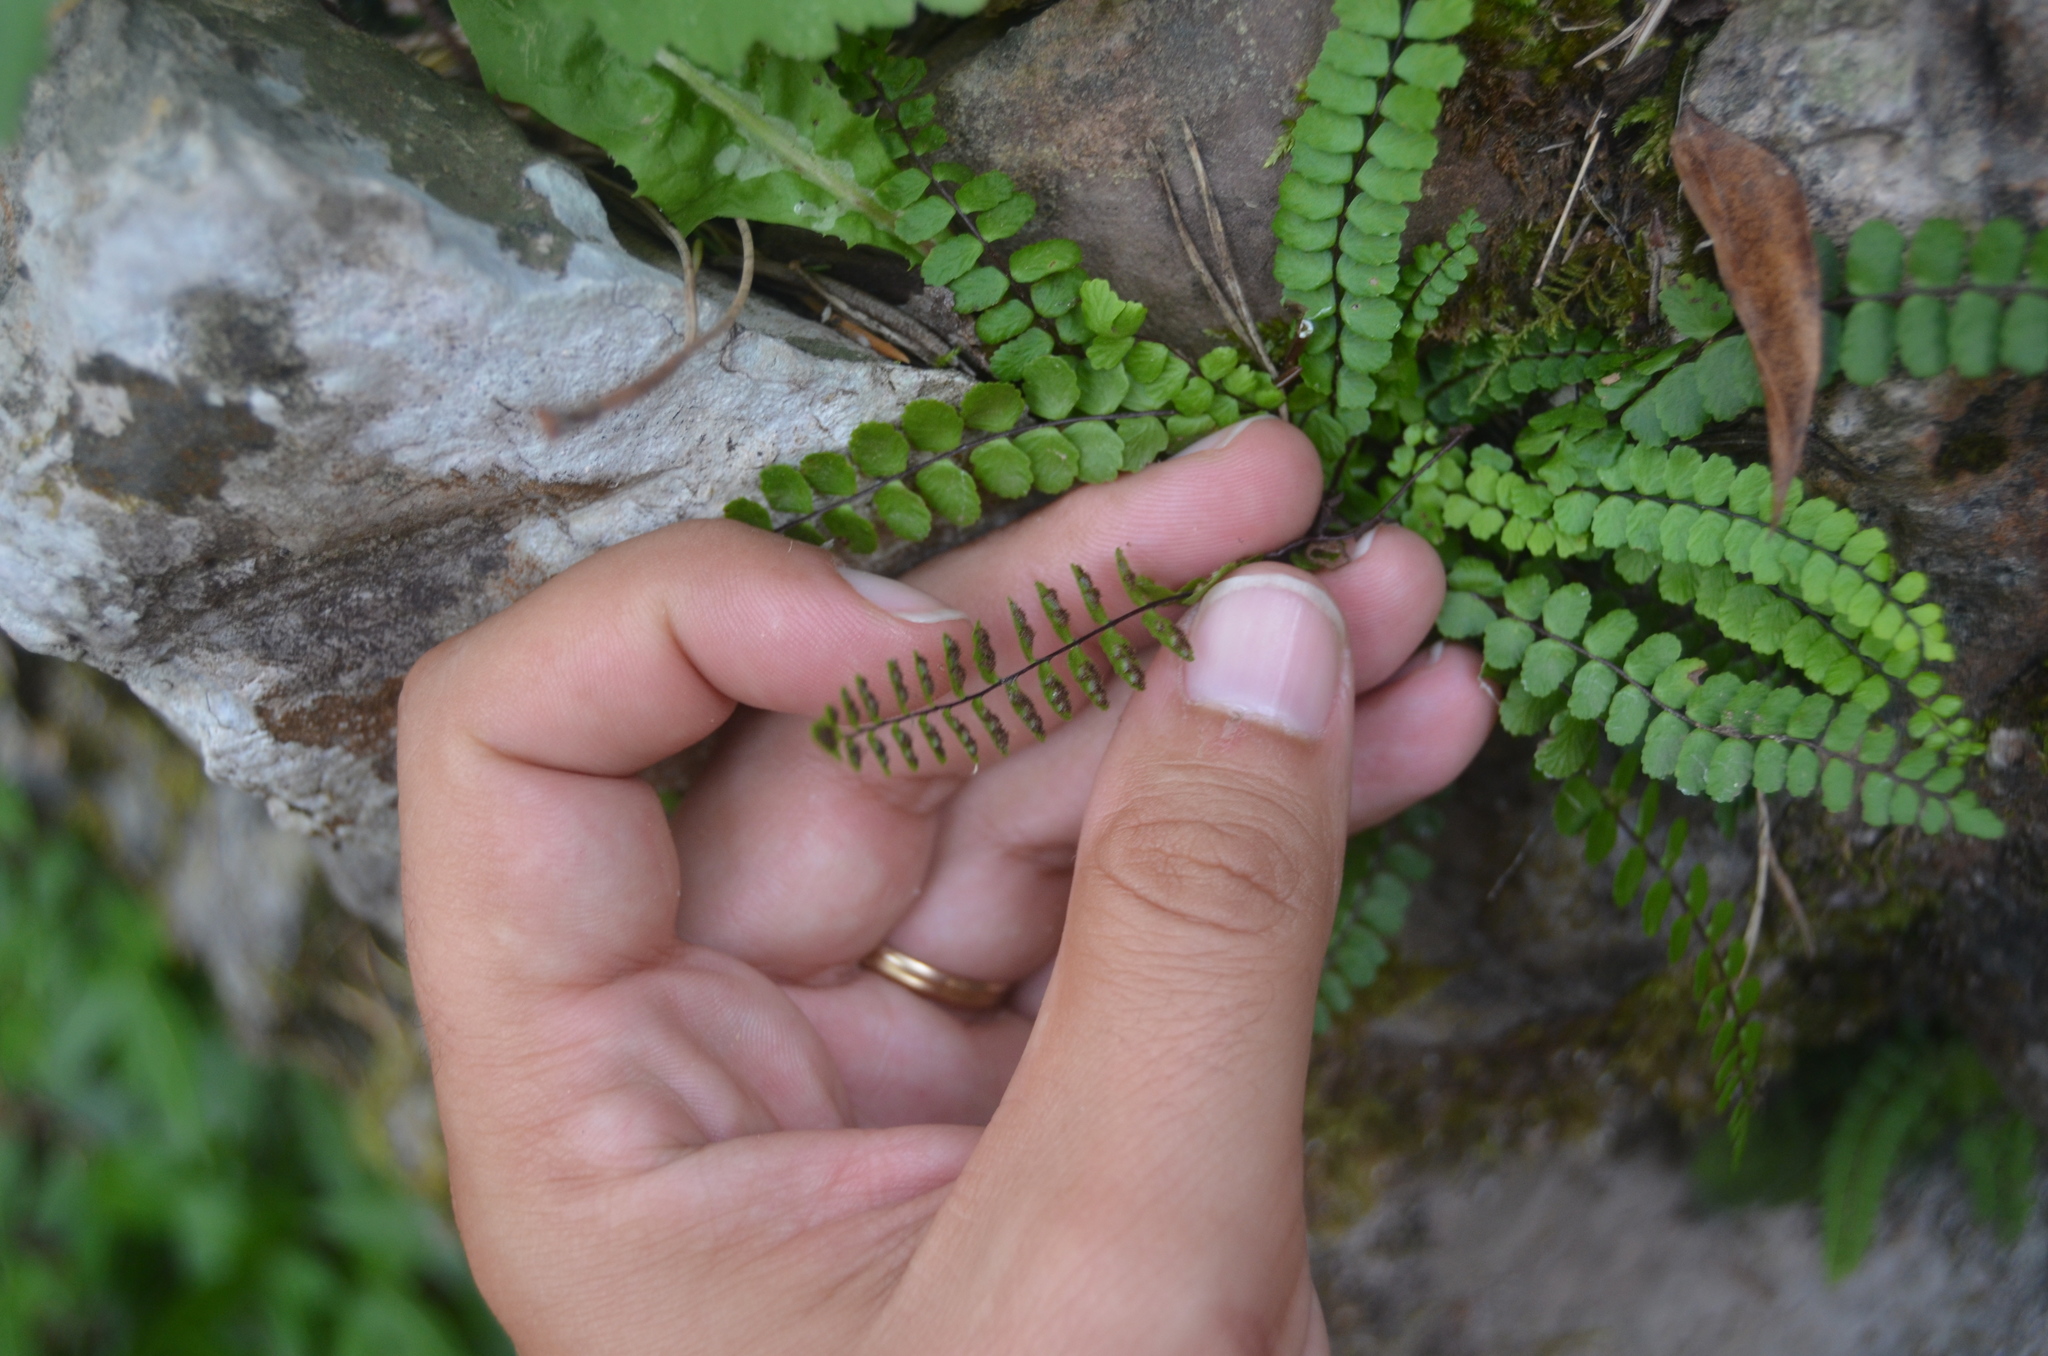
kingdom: Plantae
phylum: Tracheophyta
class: Polypodiopsida
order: Polypodiales
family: Aspleniaceae
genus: Asplenium
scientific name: Asplenium trichomanes
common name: Maidenhair spleenwort
